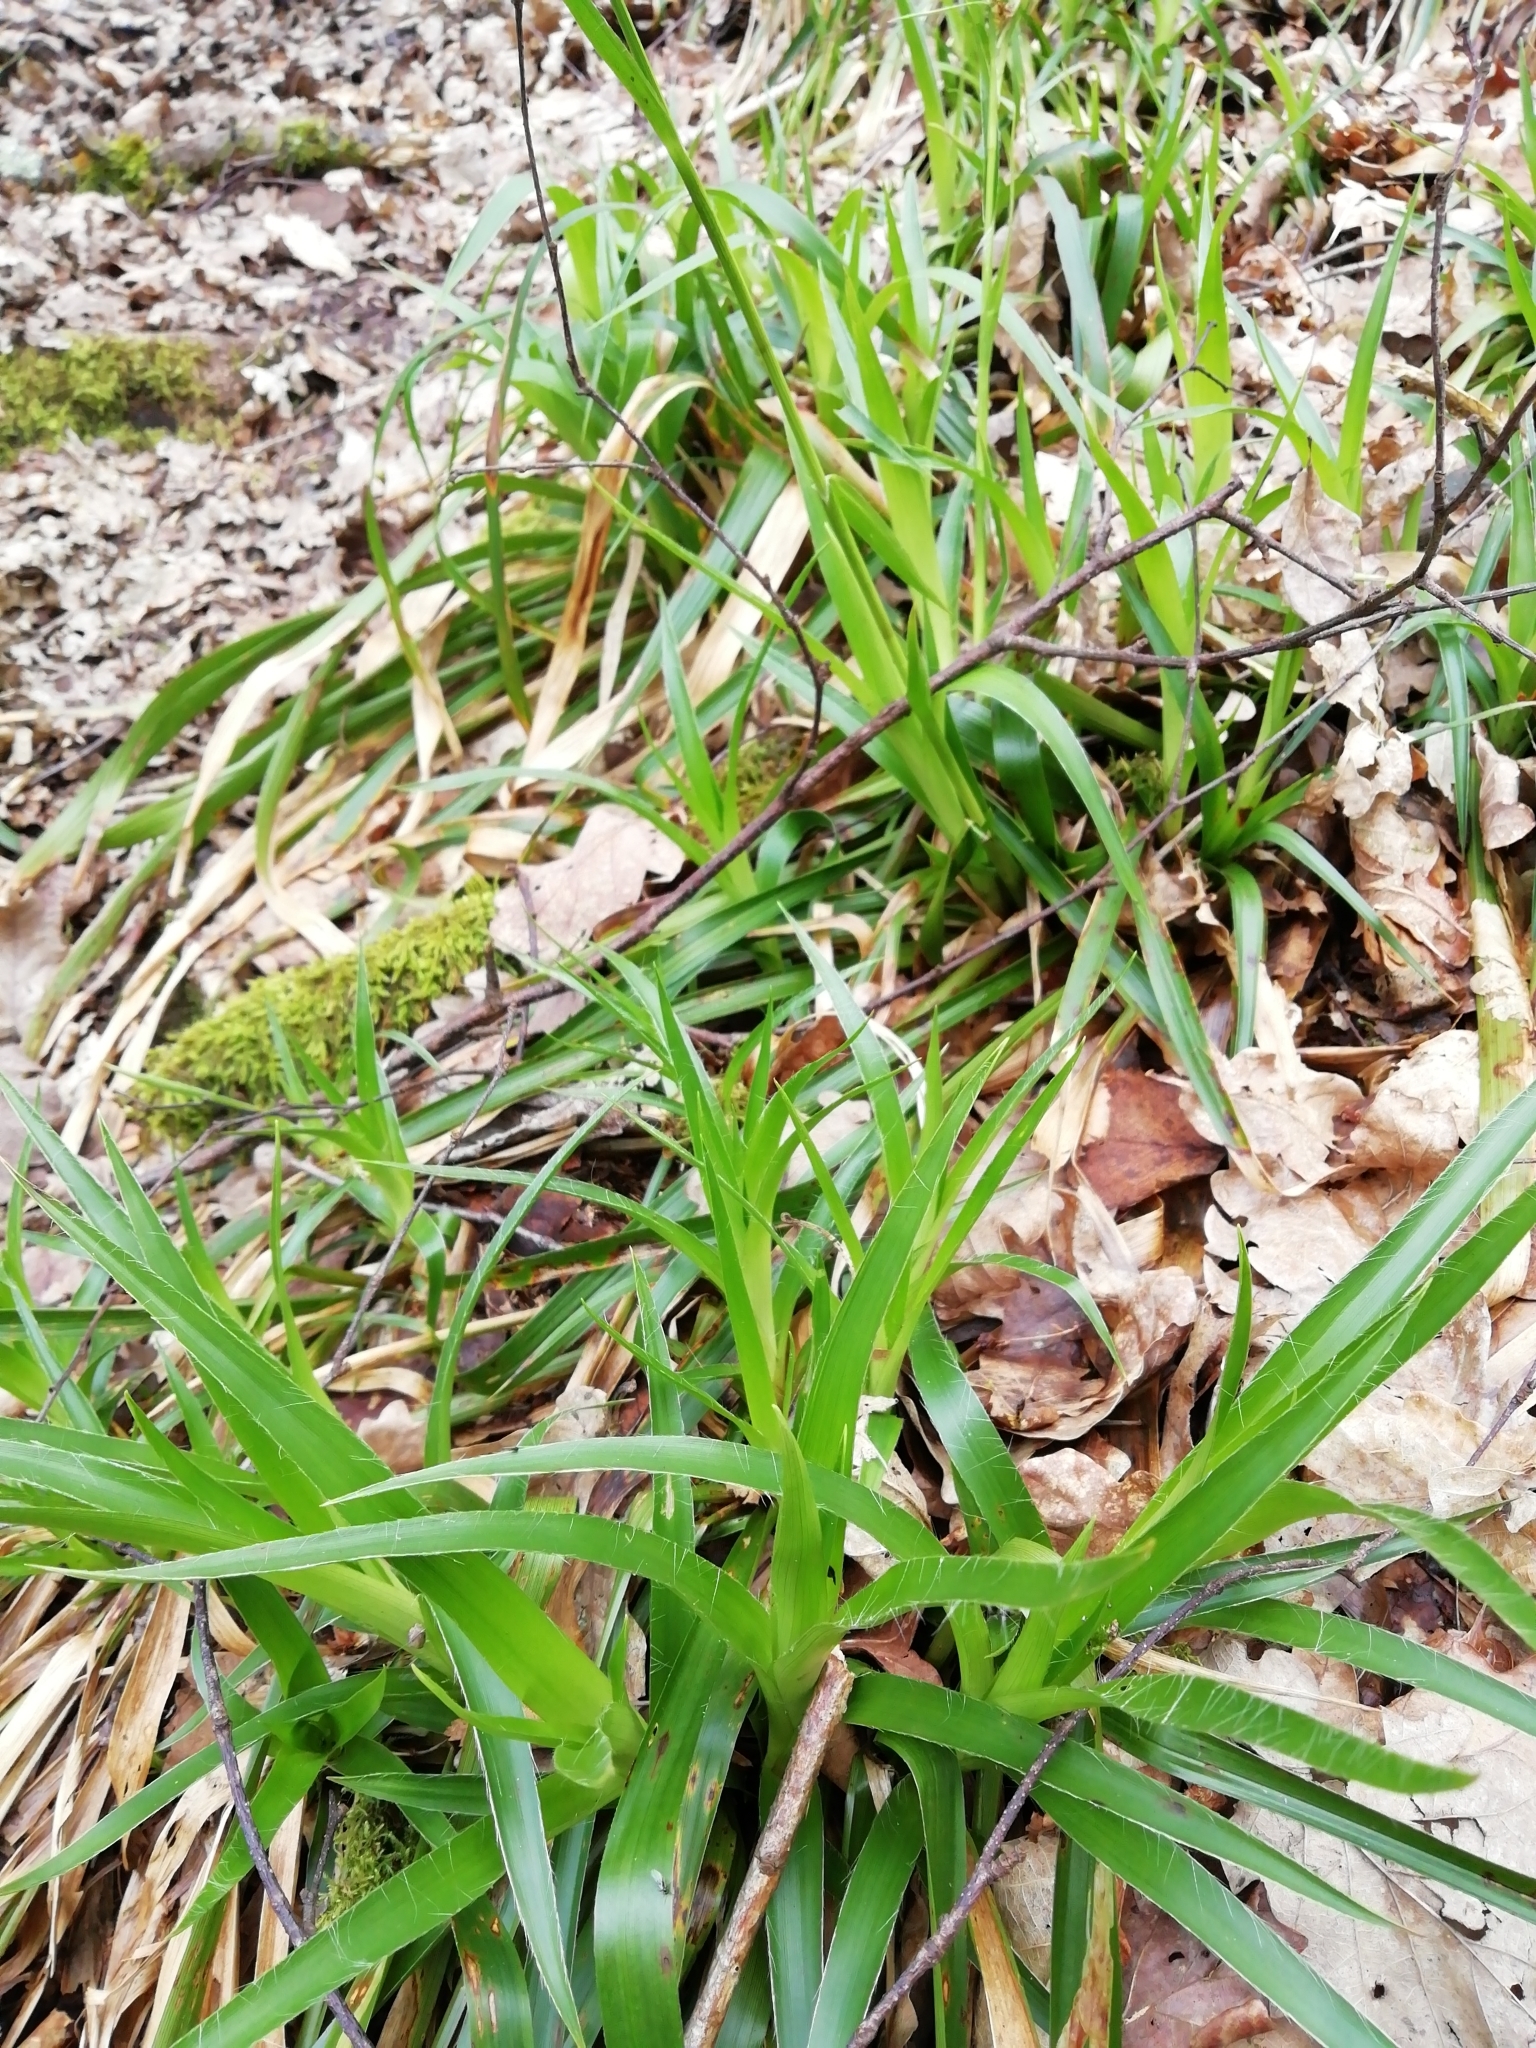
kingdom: Plantae
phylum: Tracheophyta
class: Liliopsida
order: Poales
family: Juncaceae
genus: Luzula
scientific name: Luzula sylvatica
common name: Great wood-rush
